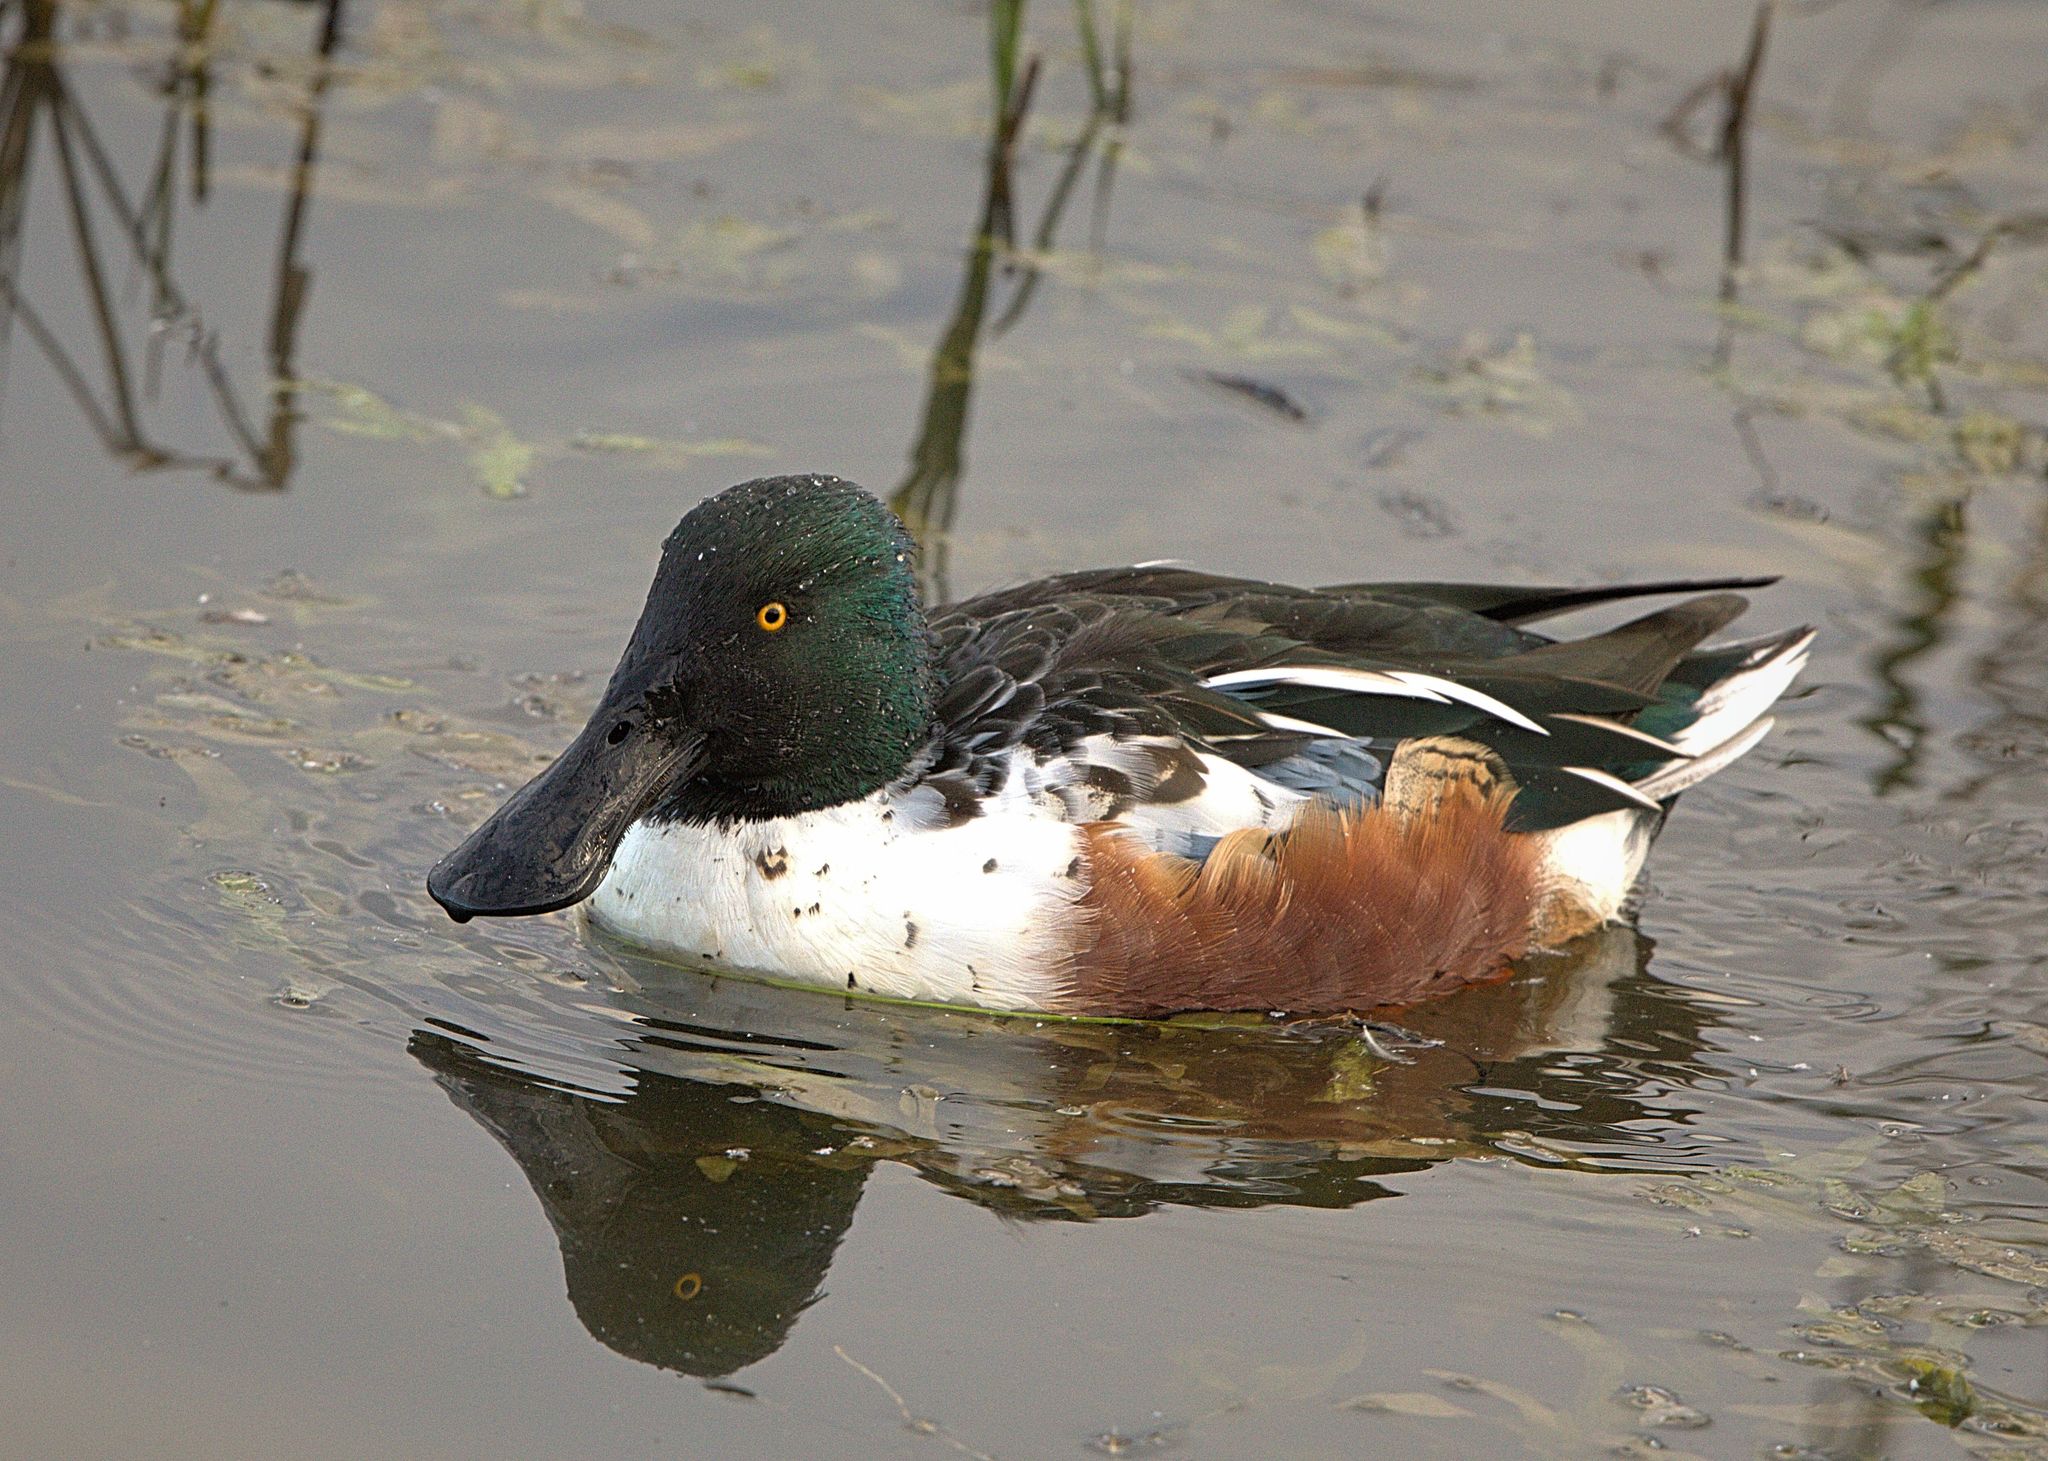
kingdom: Animalia
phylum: Chordata
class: Aves
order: Anseriformes
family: Anatidae
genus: Spatula
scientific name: Spatula clypeata
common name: Northern shoveler
